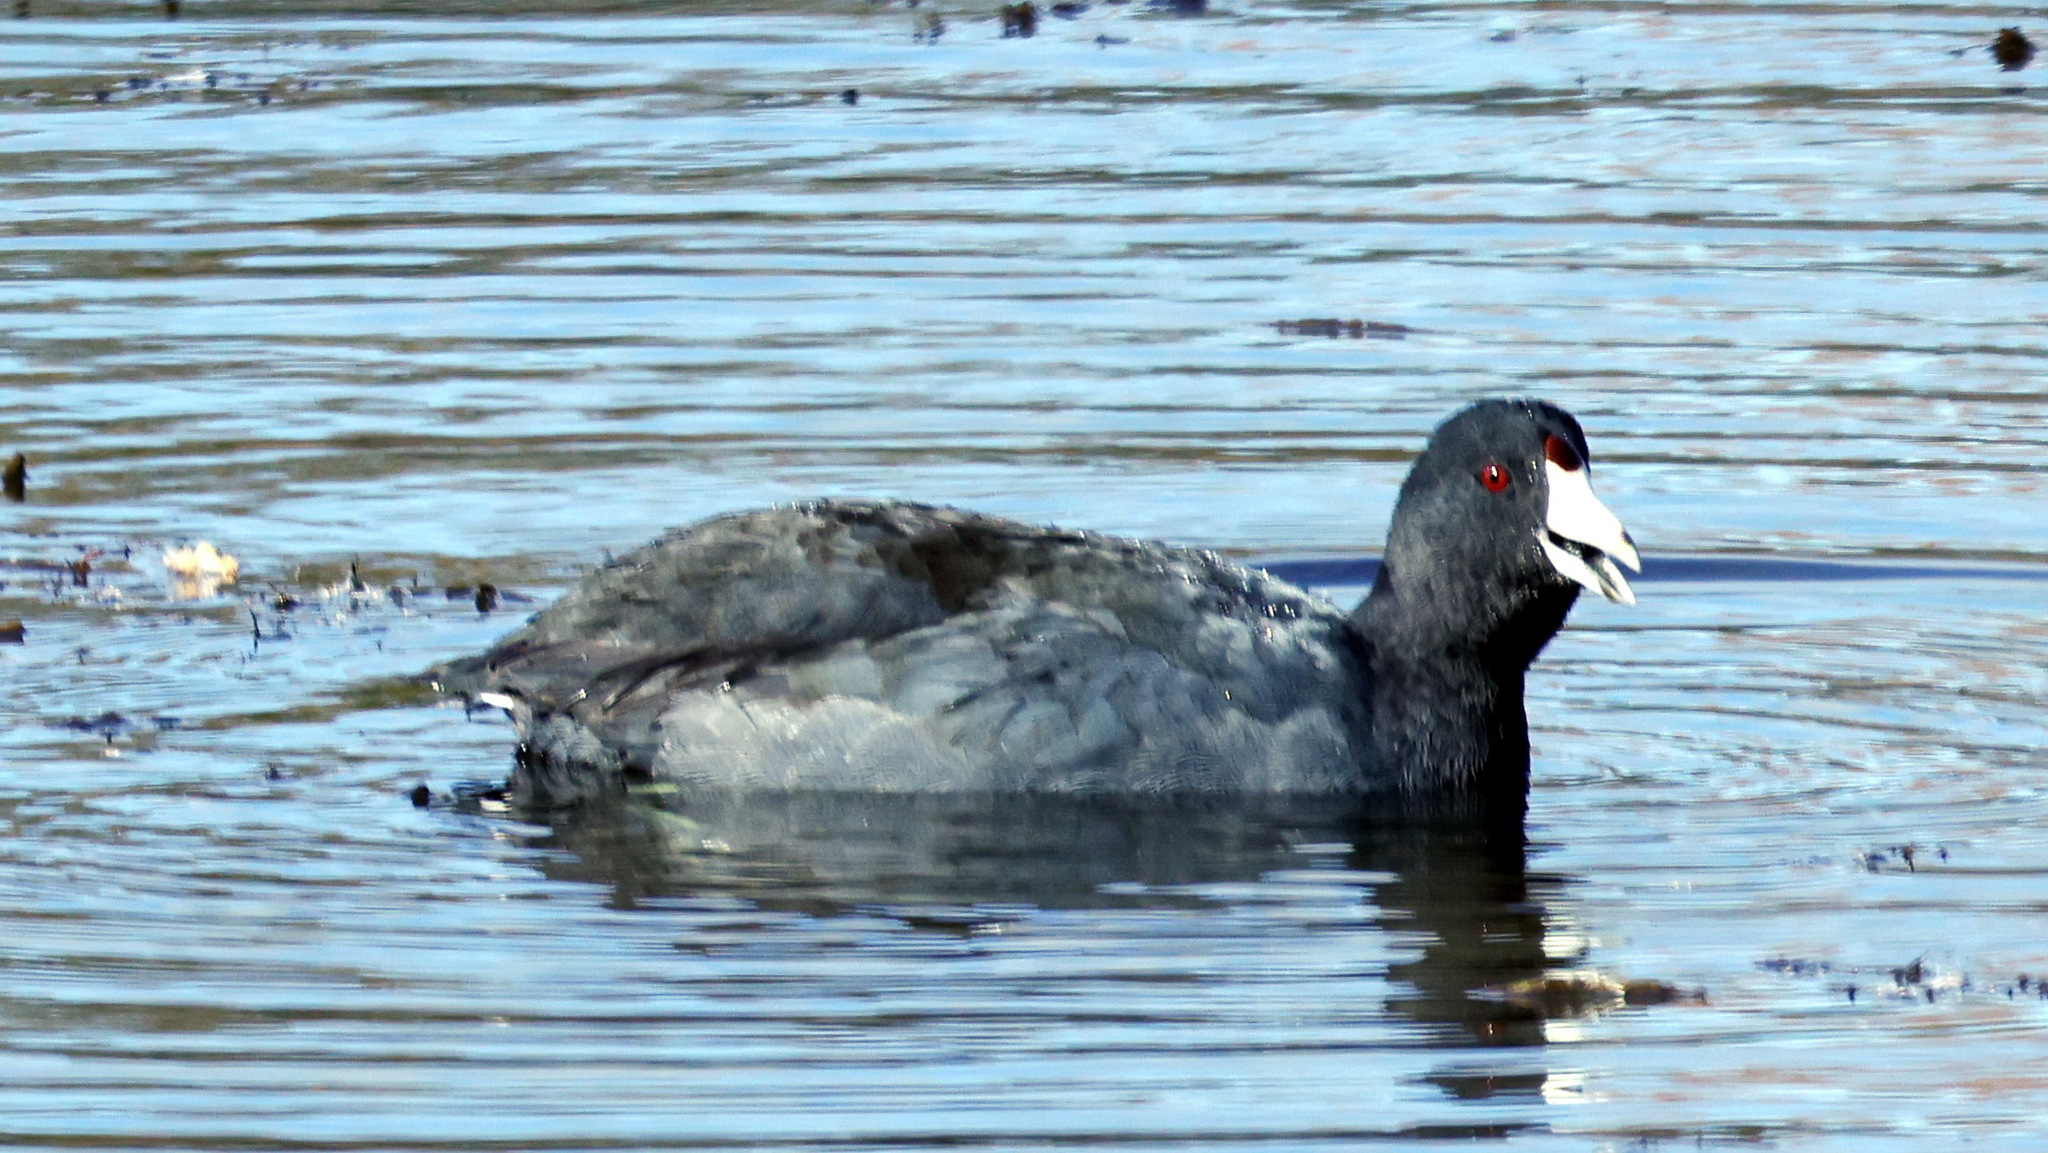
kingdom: Animalia
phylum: Chordata
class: Aves
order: Gruiformes
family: Rallidae
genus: Fulica
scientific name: Fulica americana
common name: American coot
